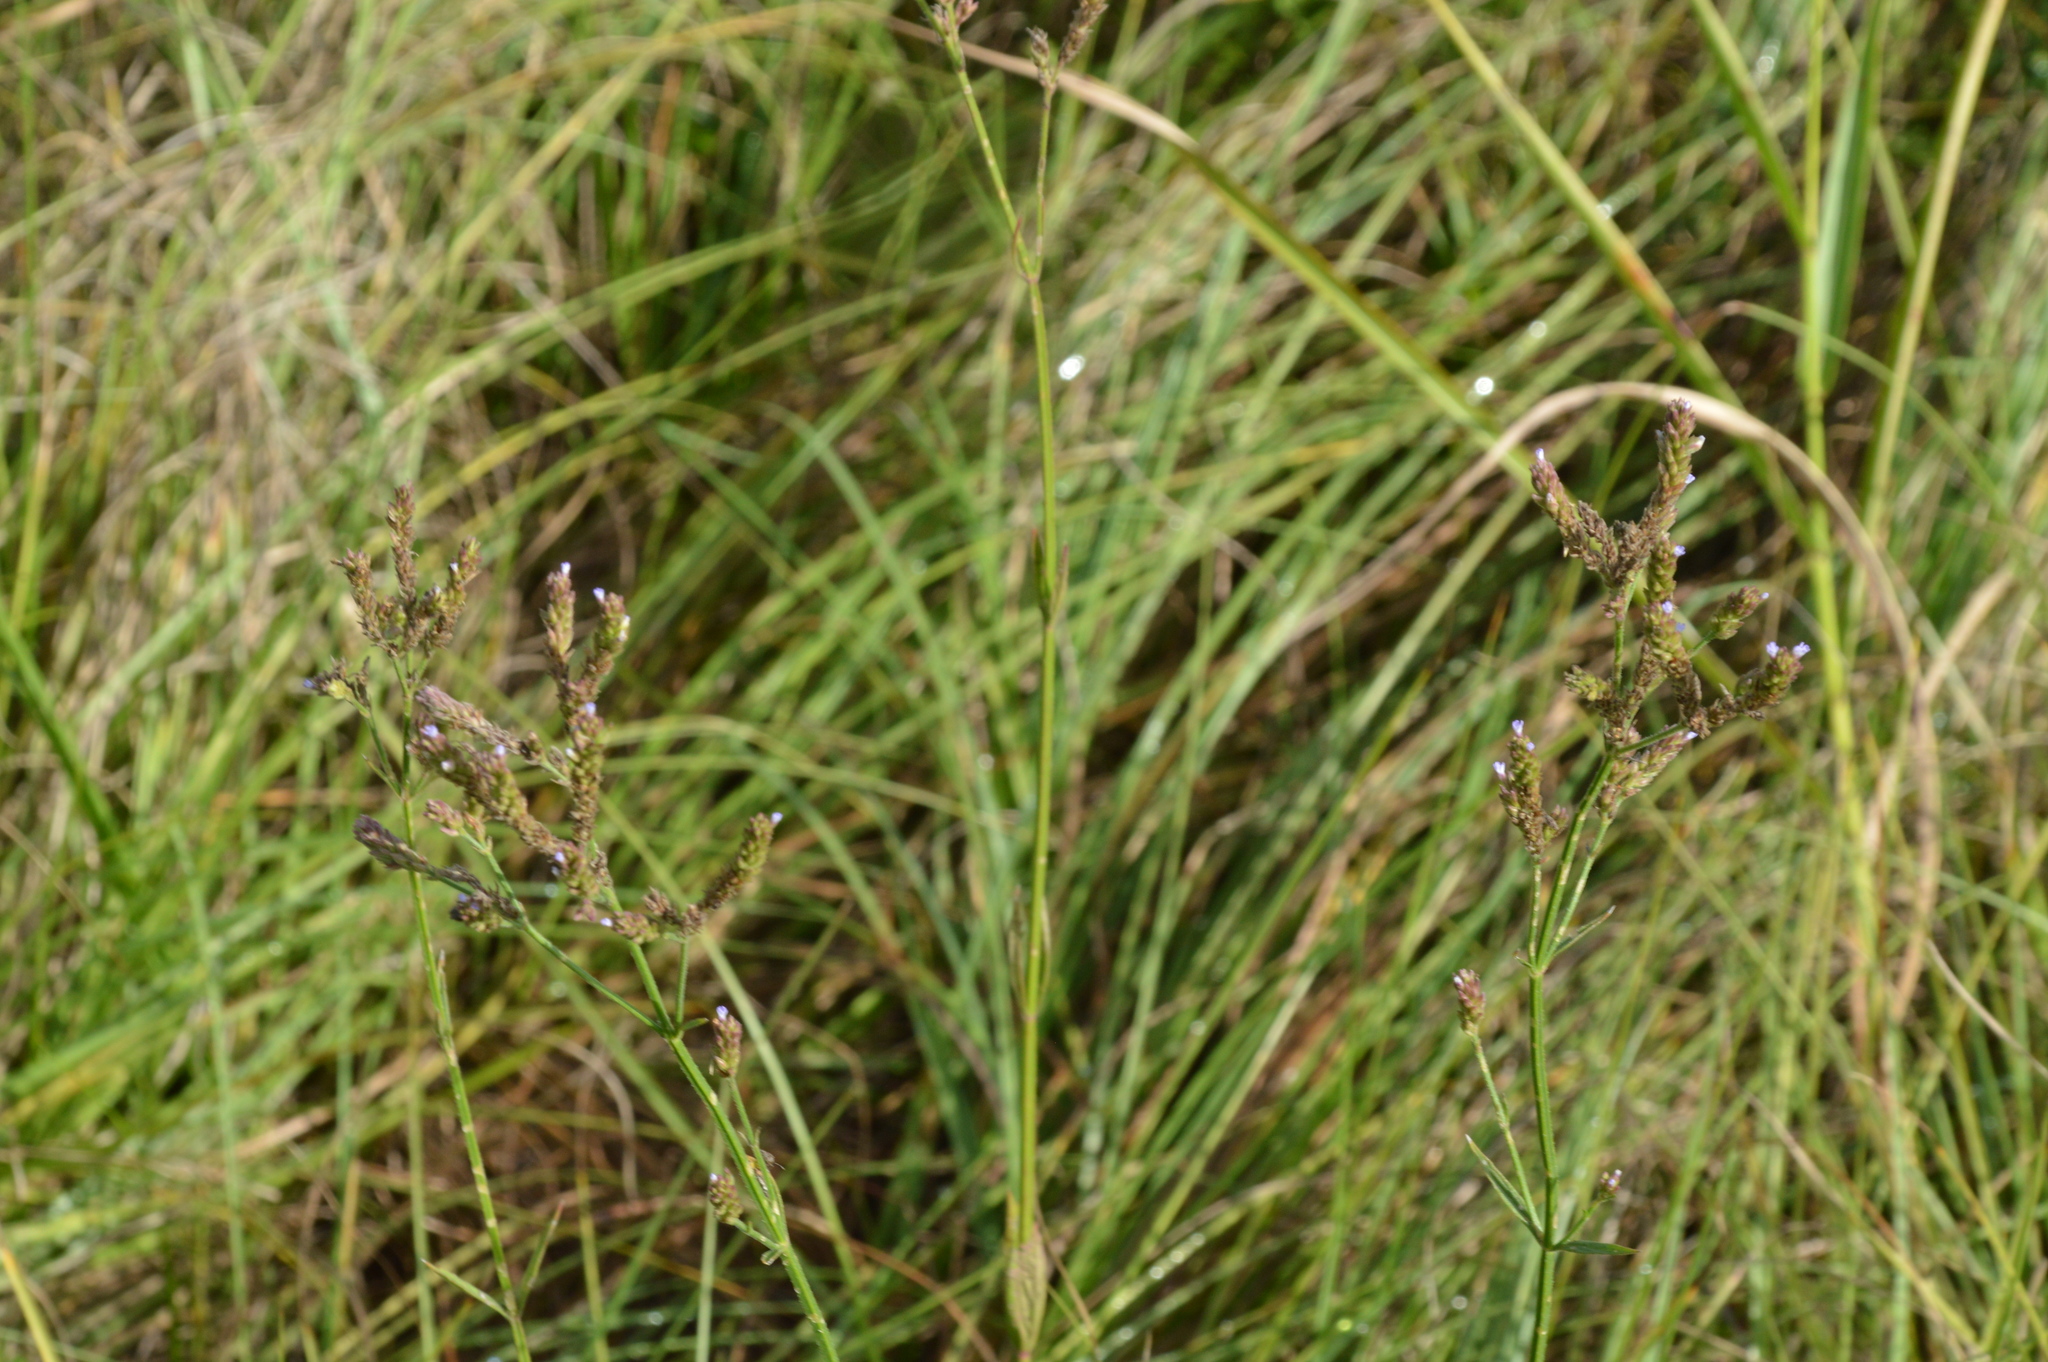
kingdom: Plantae
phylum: Tracheophyta
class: Magnoliopsida
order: Lamiales
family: Verbenaceae
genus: Verbena
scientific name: Verbena brasiliensis
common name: Brazilian vervain
